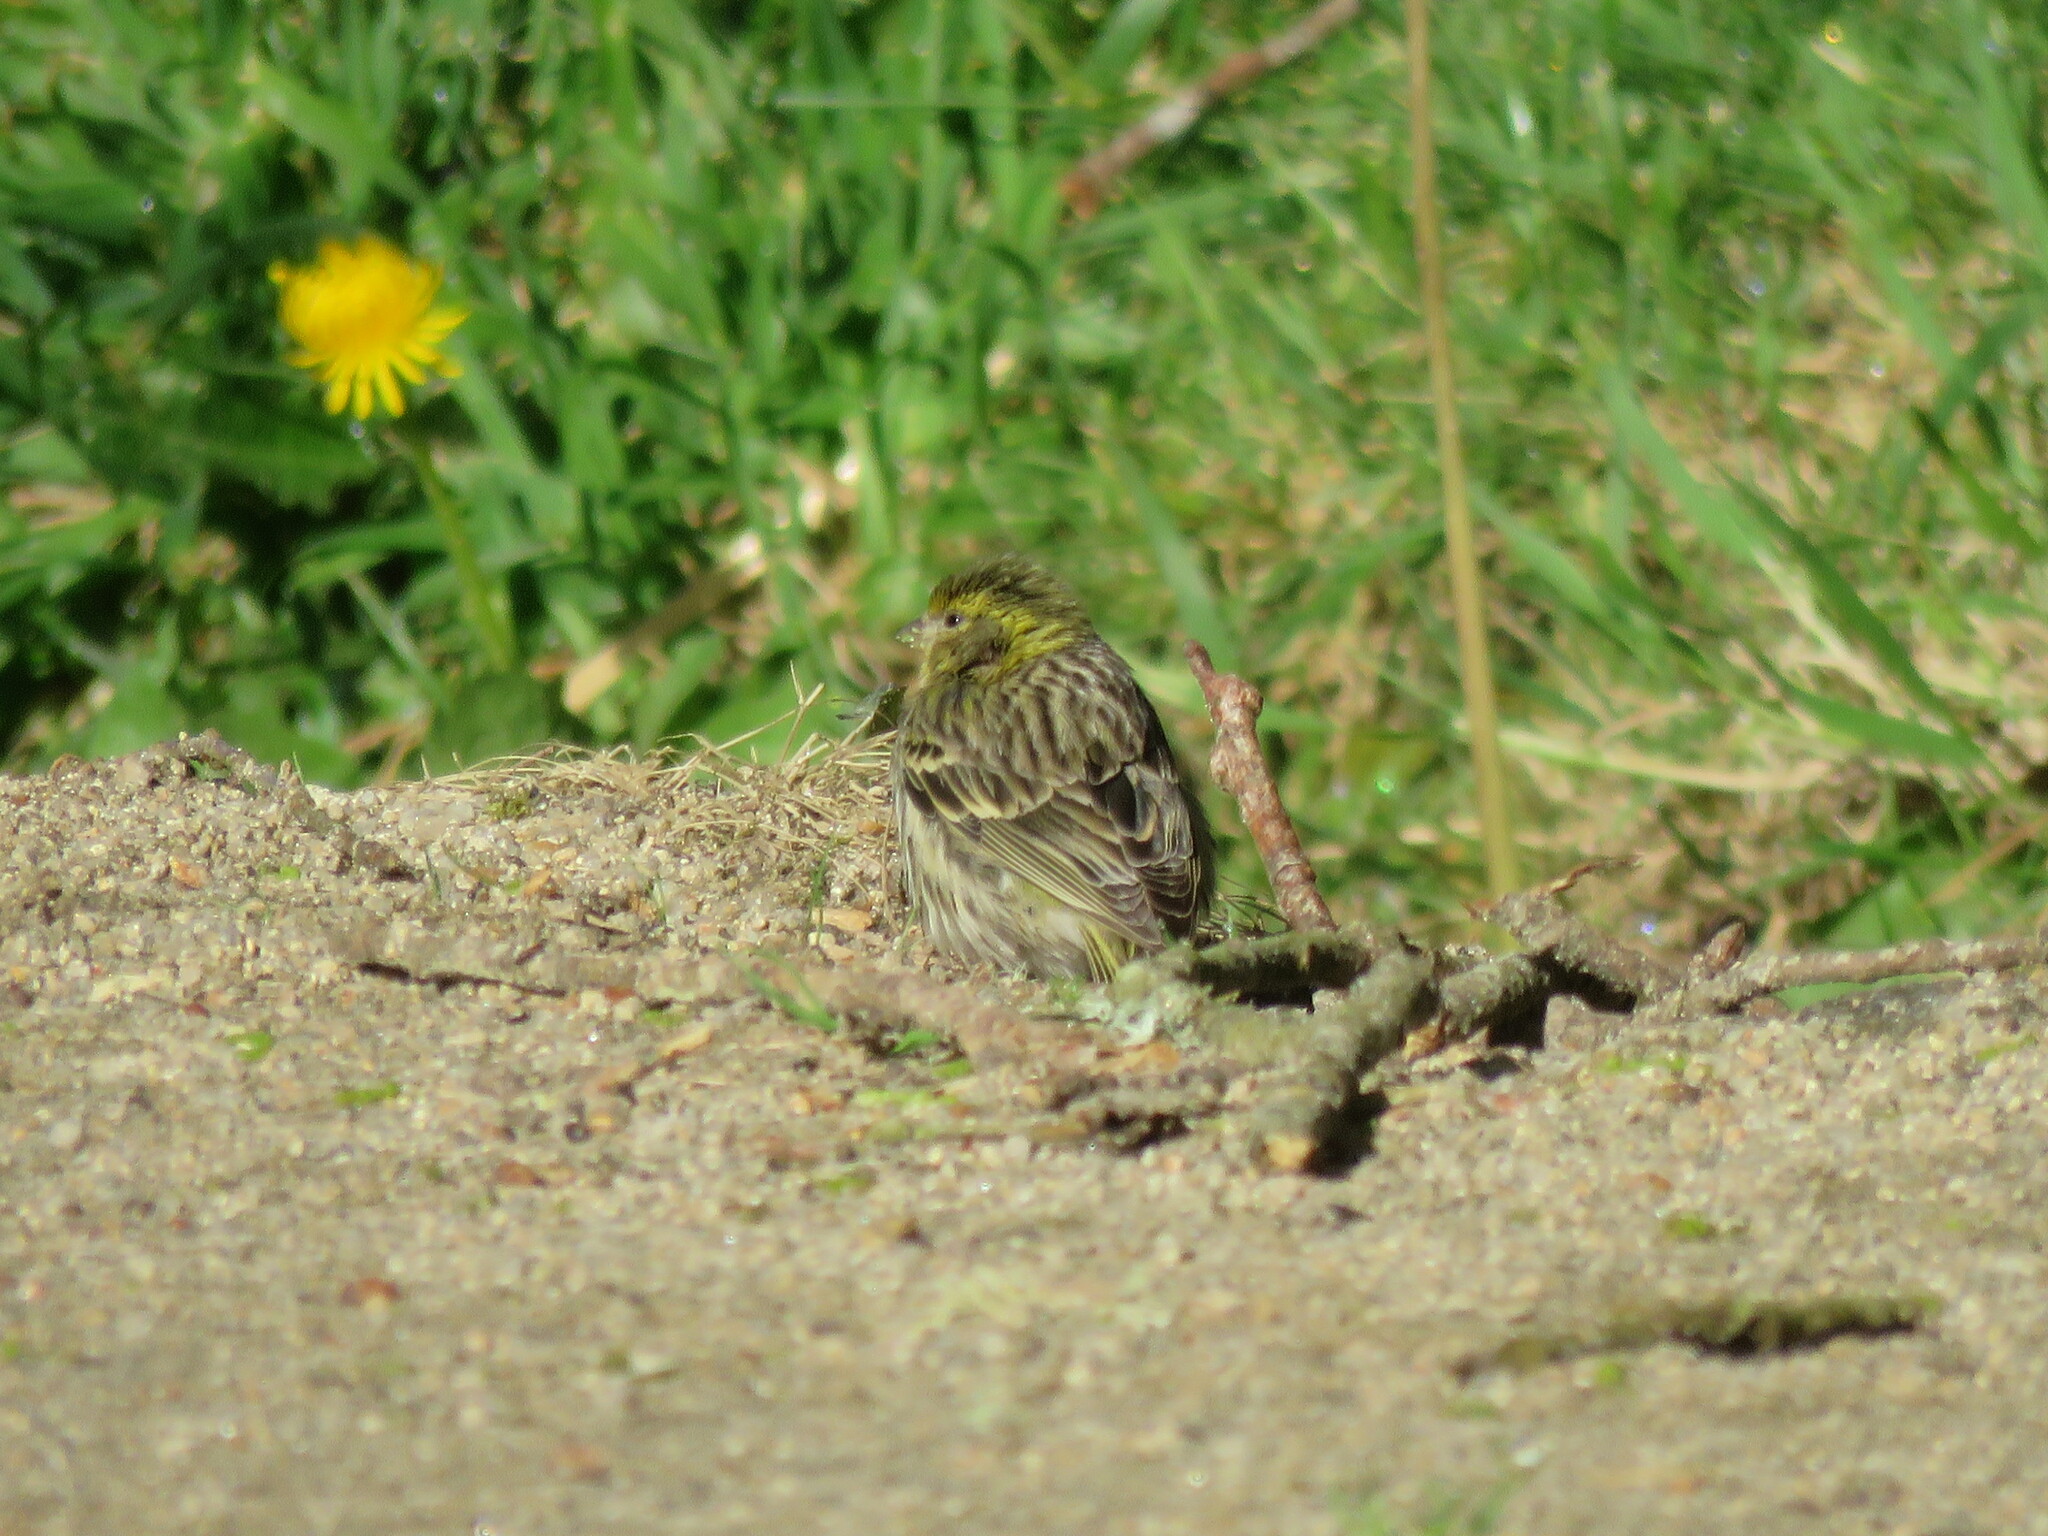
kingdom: Animalia
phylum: Chordata
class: Aves
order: Passeriformes
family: Fringillidae
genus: Serinus
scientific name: Serinus serinus
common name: European serin
